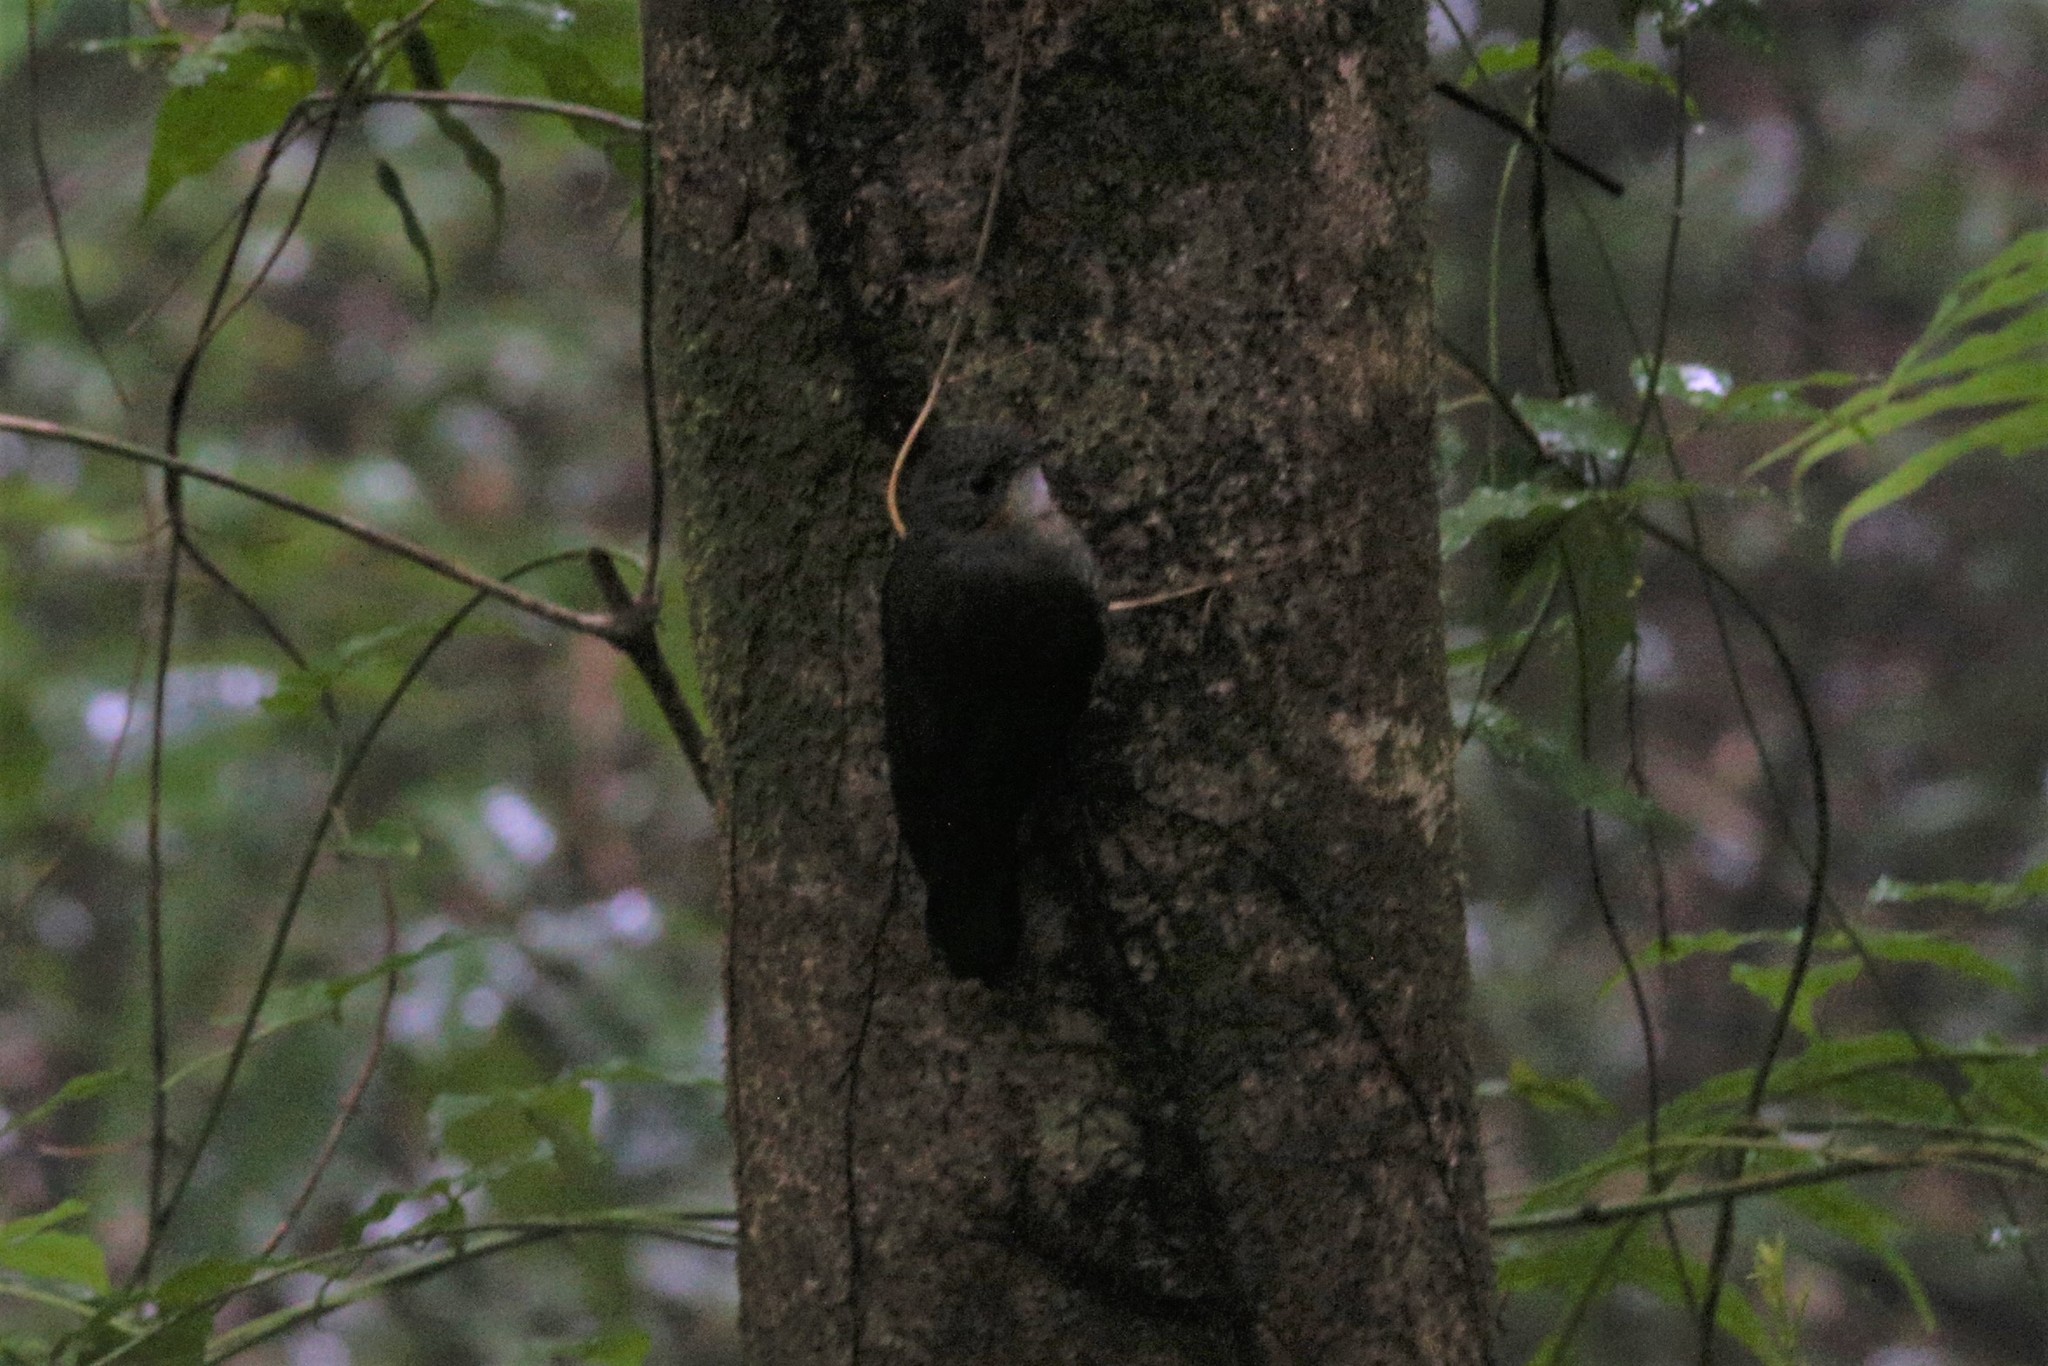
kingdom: Animalia
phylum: Chordata
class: Aves
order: Passeriformes
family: Climacteridae
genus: Cormobates
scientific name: Cormobates leucophaea
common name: White-throated treecreeper
